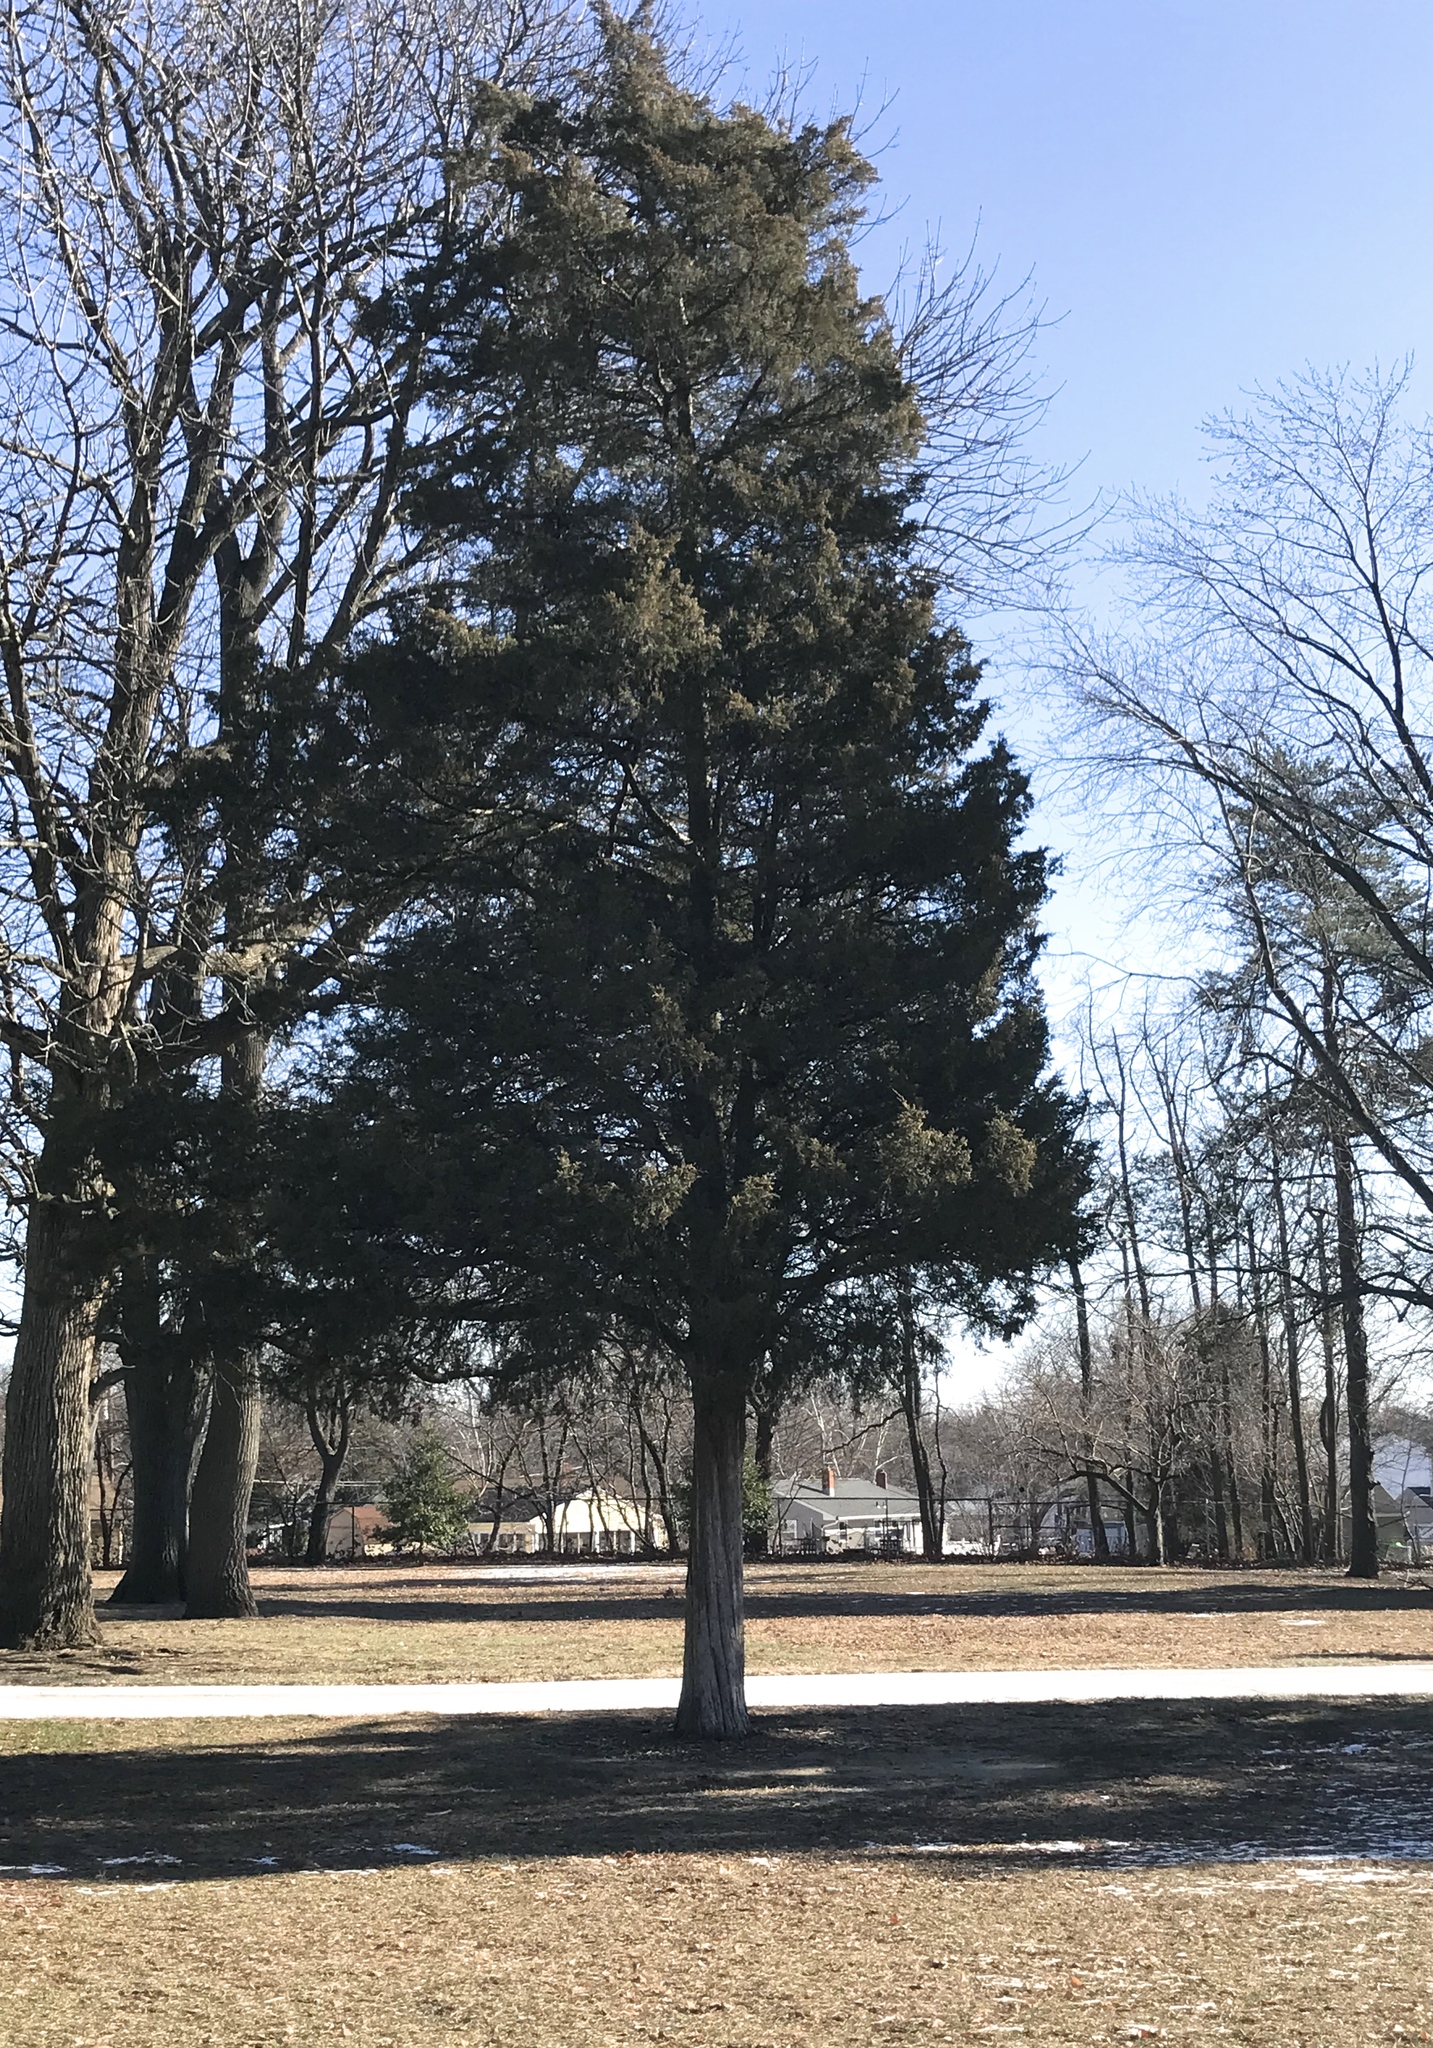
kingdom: Plantae
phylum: Tracheophyta
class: Pinopsida
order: Pinales
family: Cupressaceae
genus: Juniperus
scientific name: Juniperus virginiana
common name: Red juniper
